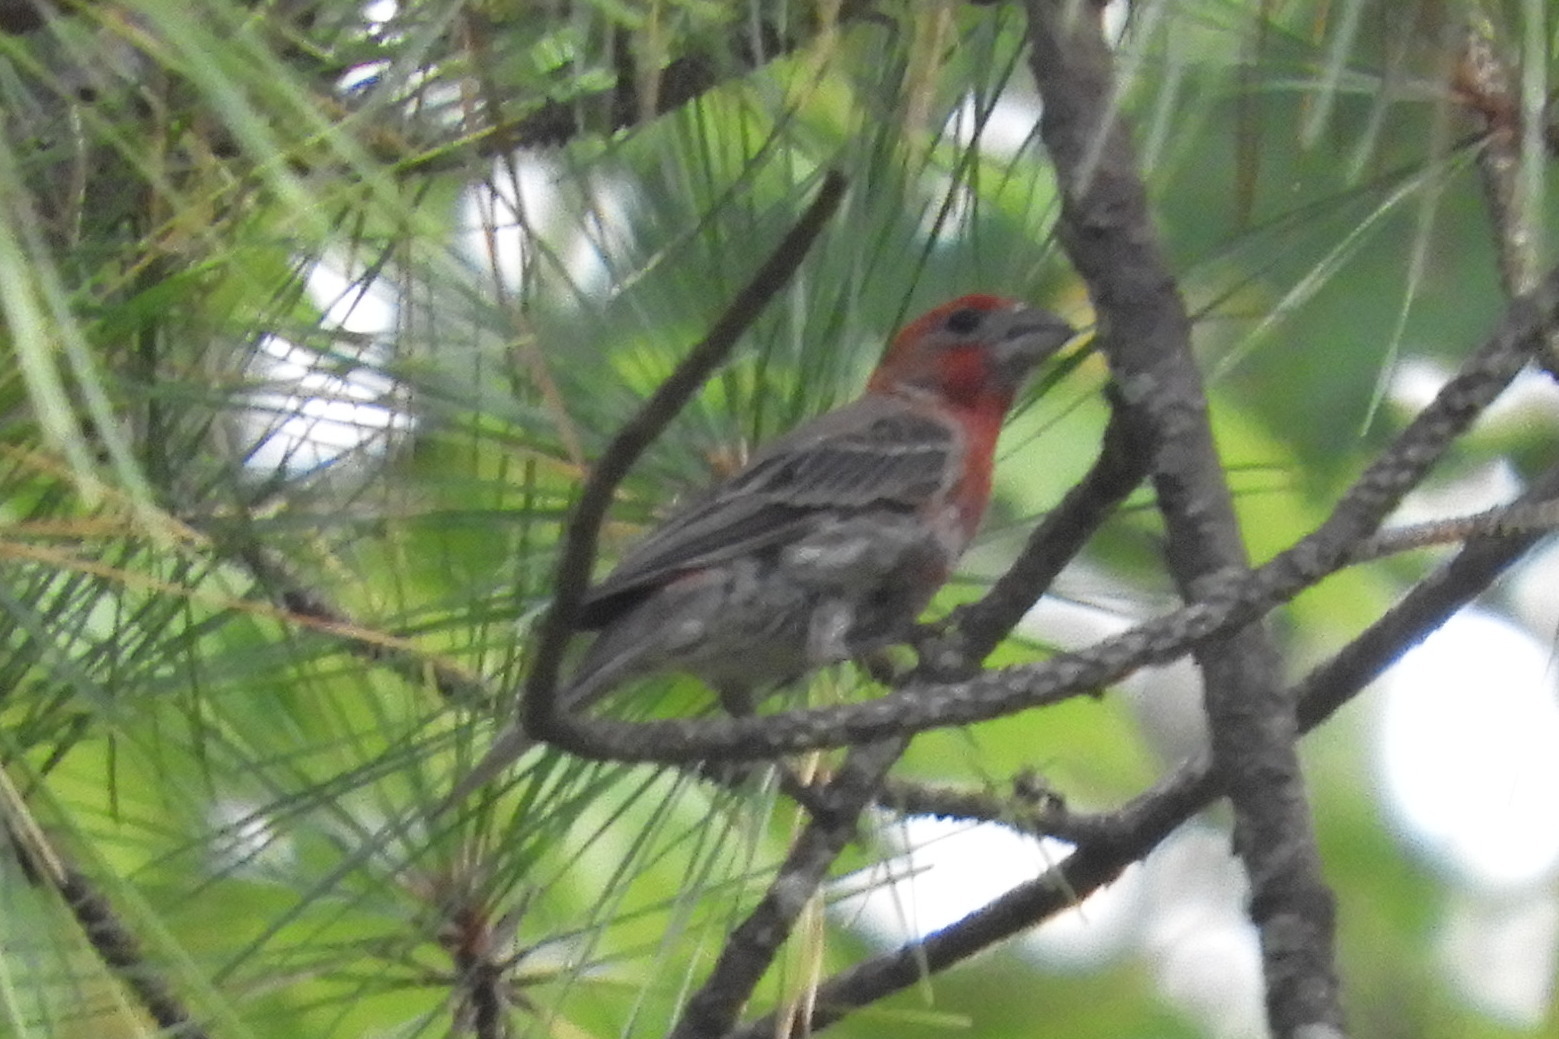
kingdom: Animalia
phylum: Chordata
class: Aves
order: Passeriformes
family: Fringillidae
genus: Haemorhous
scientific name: Haemorhous mexicanus
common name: House finch
